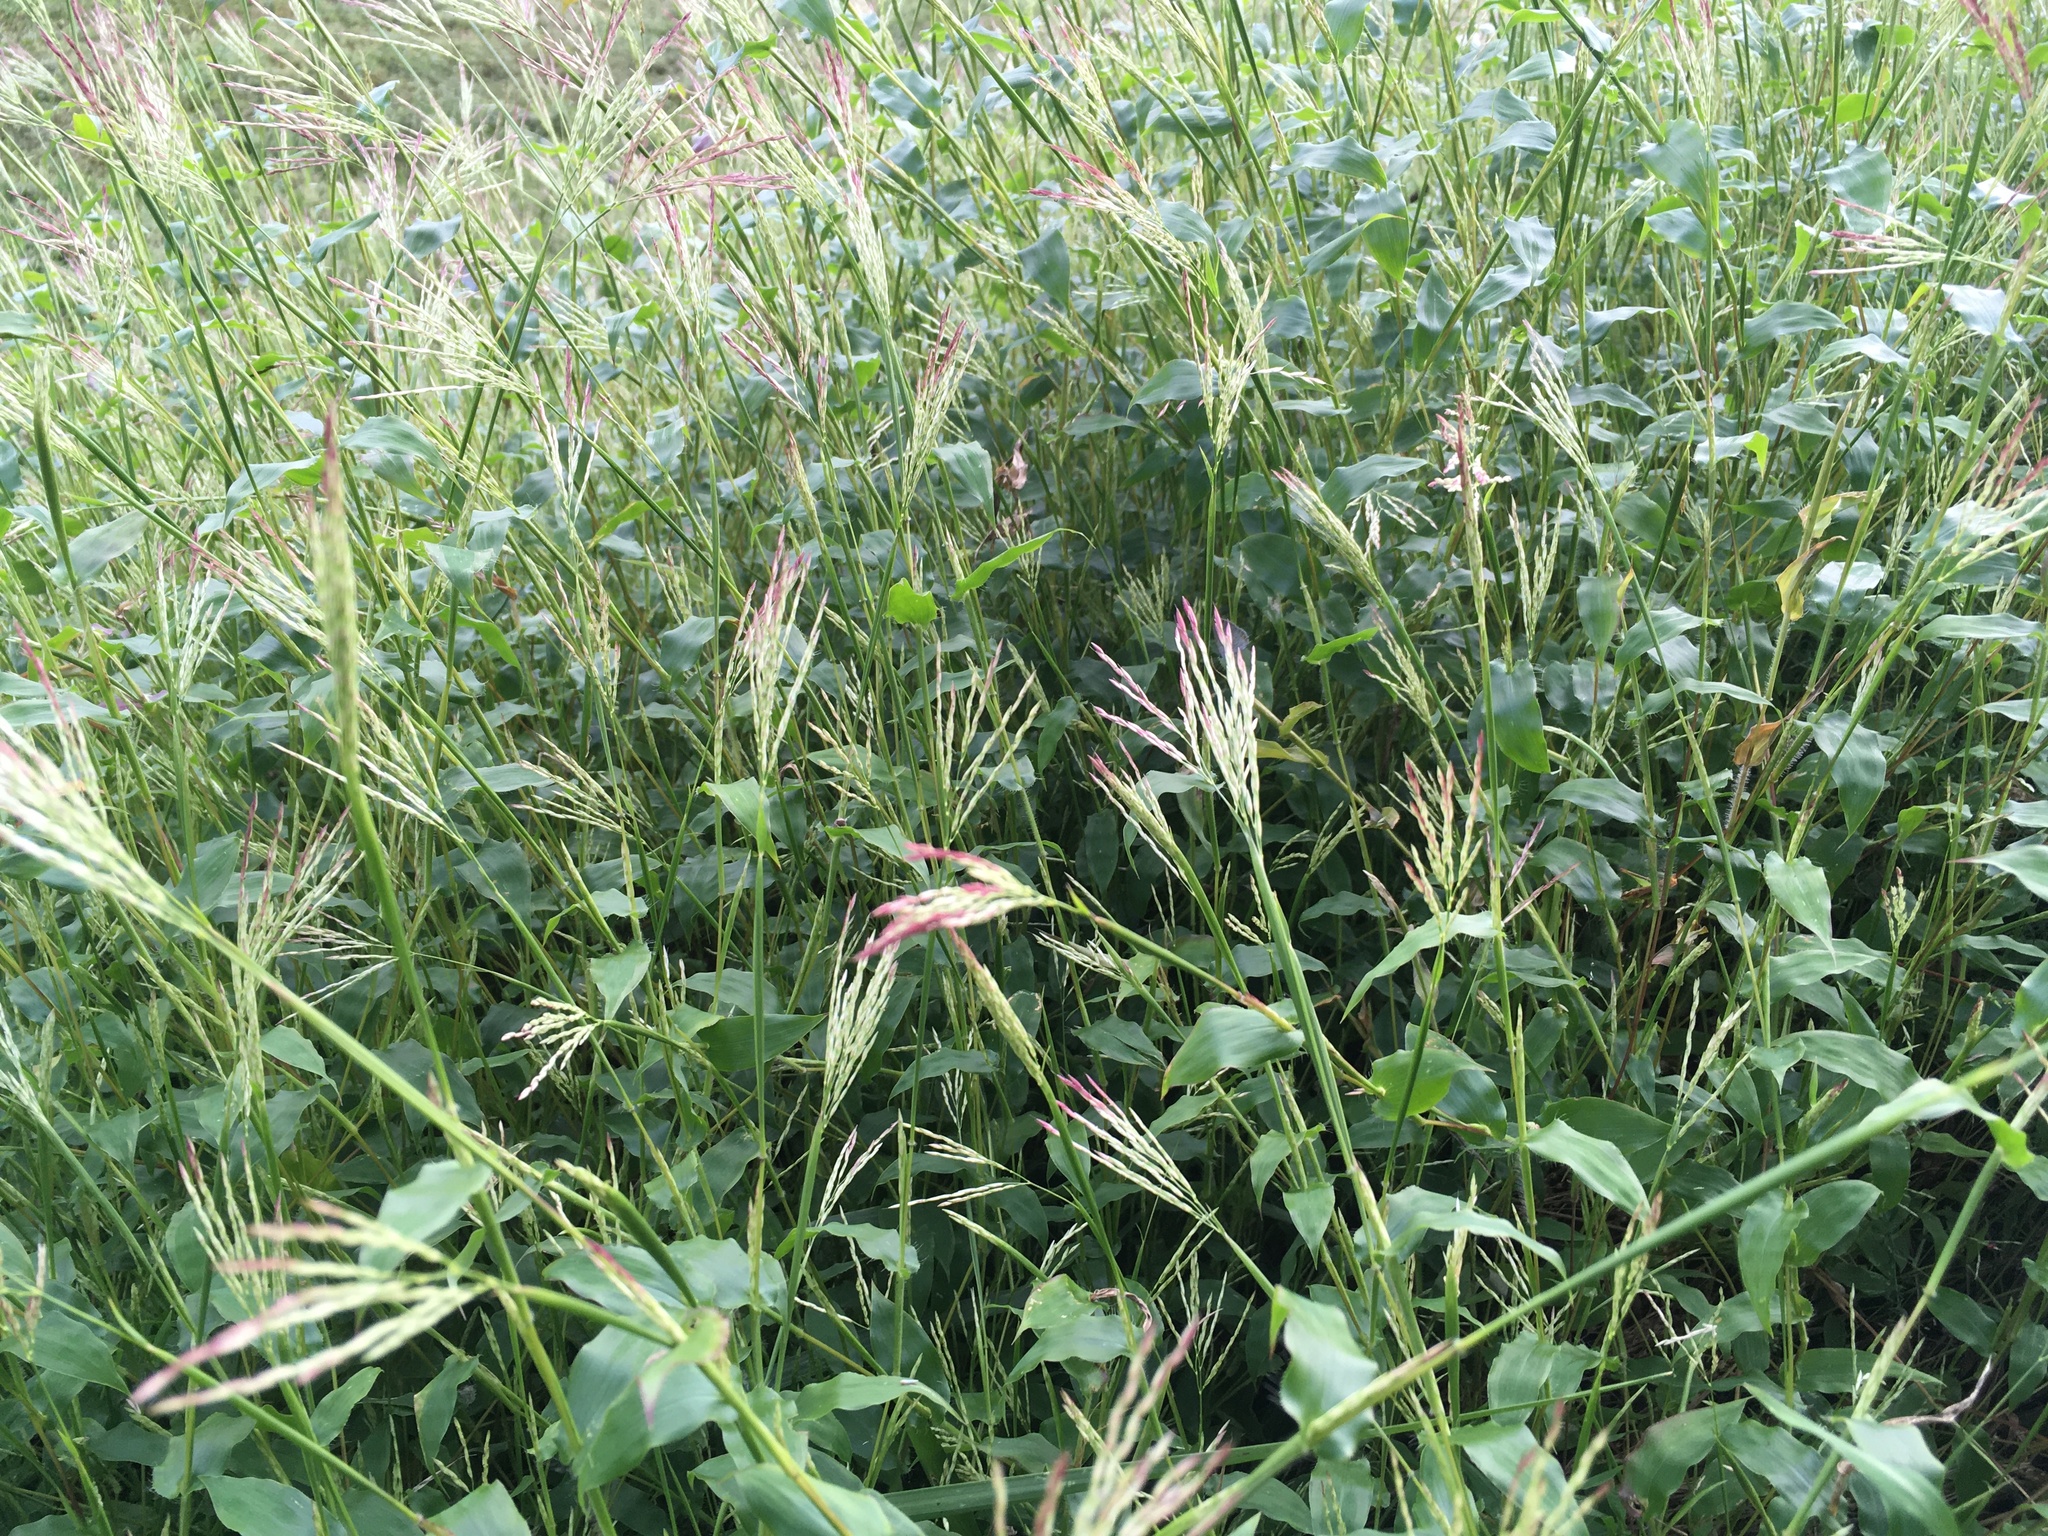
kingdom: Plantae
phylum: Tracheophyta
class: Liliopsida
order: Poales
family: Poaceae
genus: Arthraxon
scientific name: Arthraxon hispidus
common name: Small carpgrass
